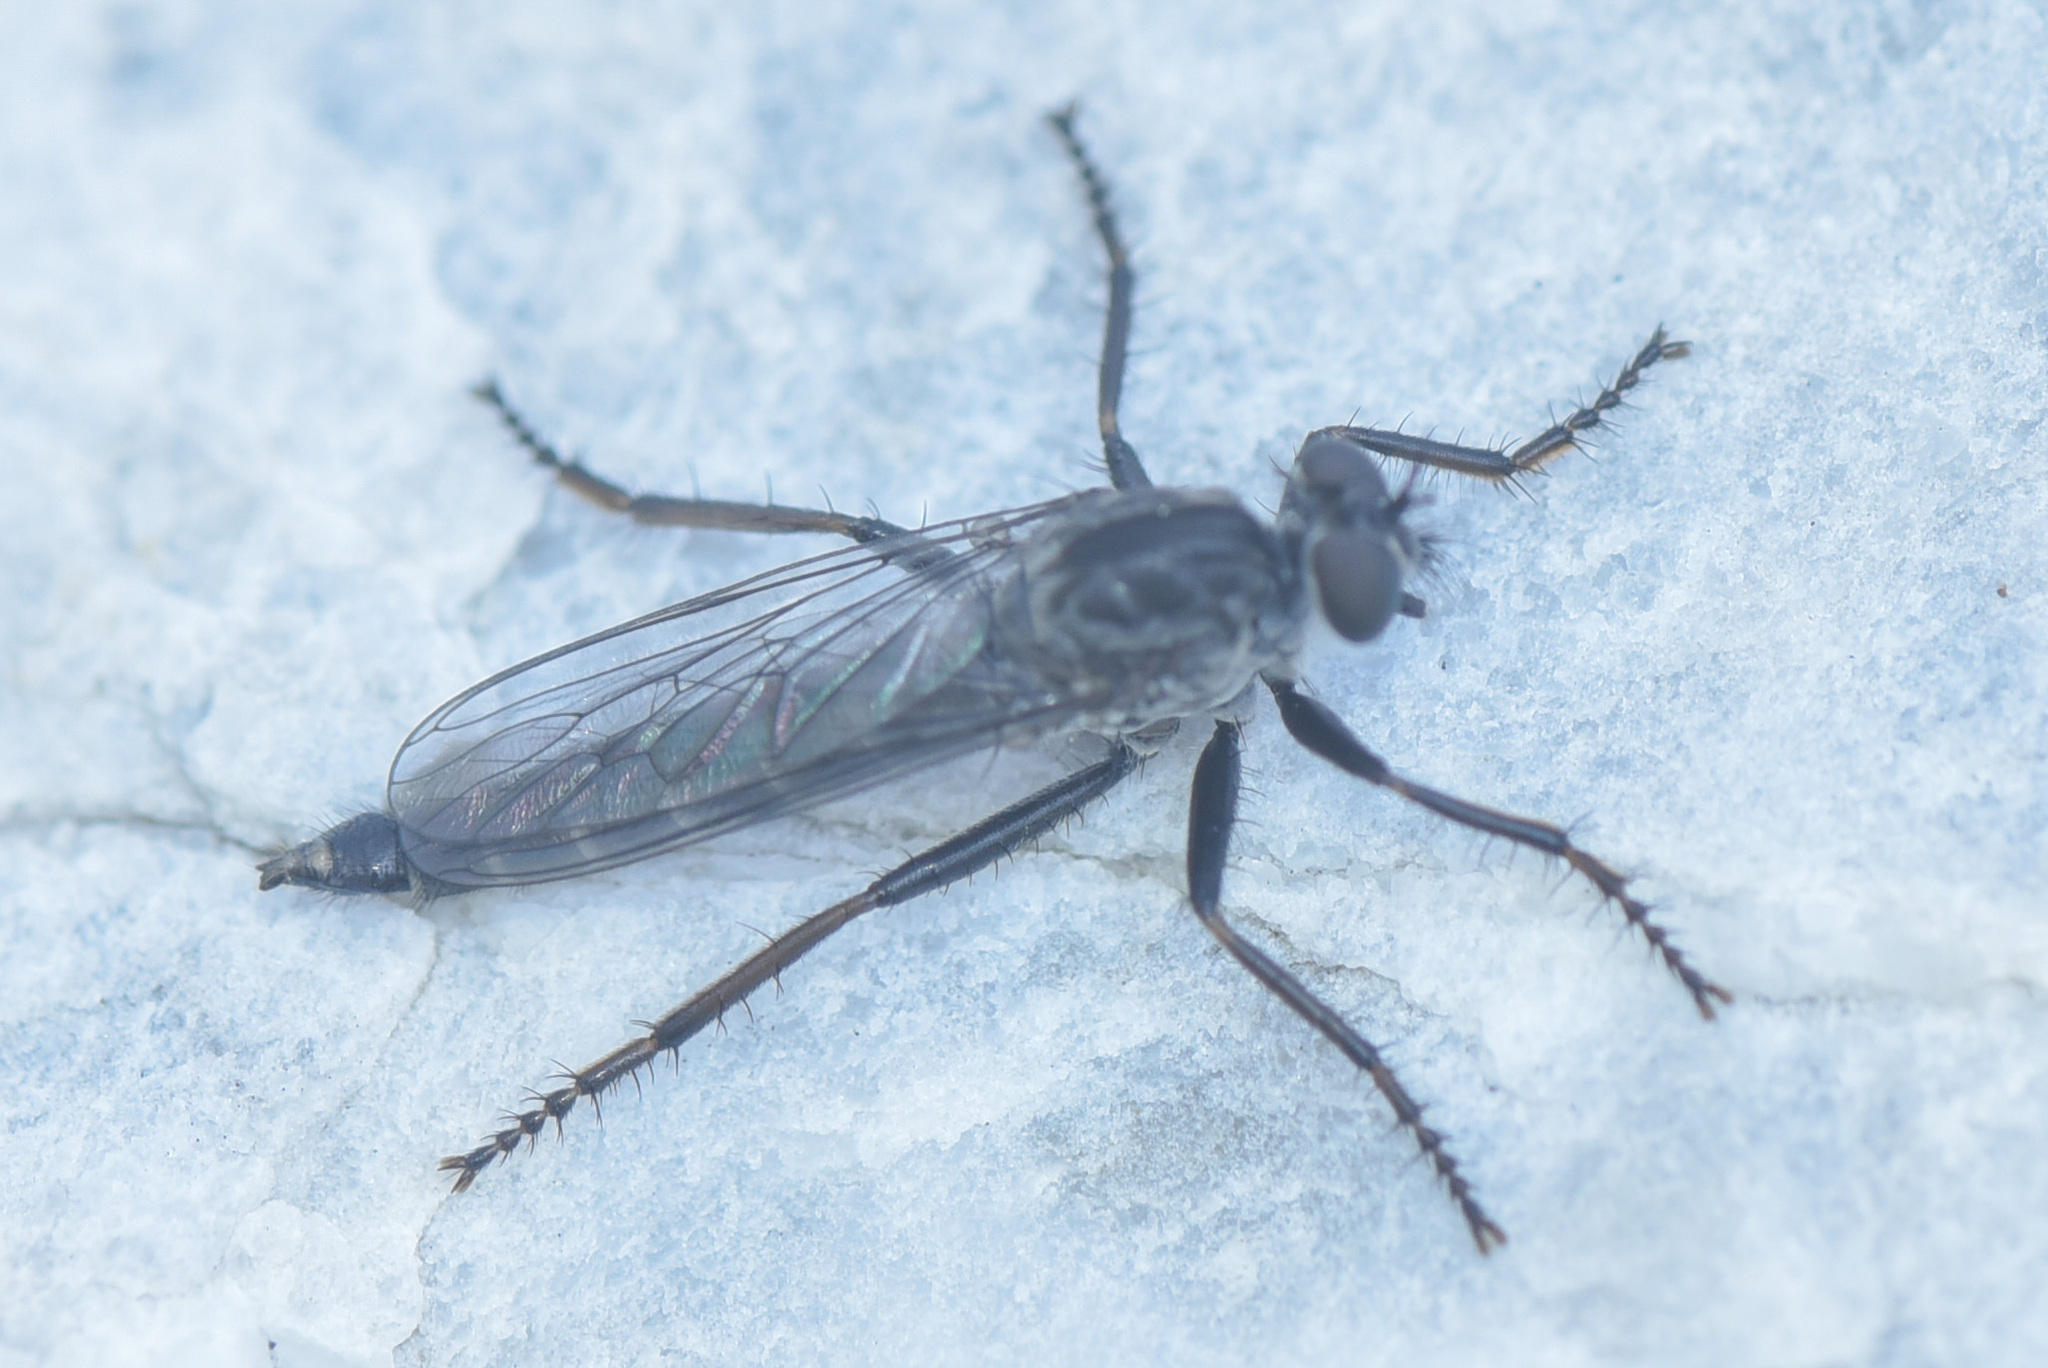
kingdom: Animalia
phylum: Arthropoda
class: Insecta
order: Diptera
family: Asilidae
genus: Rhadiurgus
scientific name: Rhadiurgus variabilis
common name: Northern robberfly
